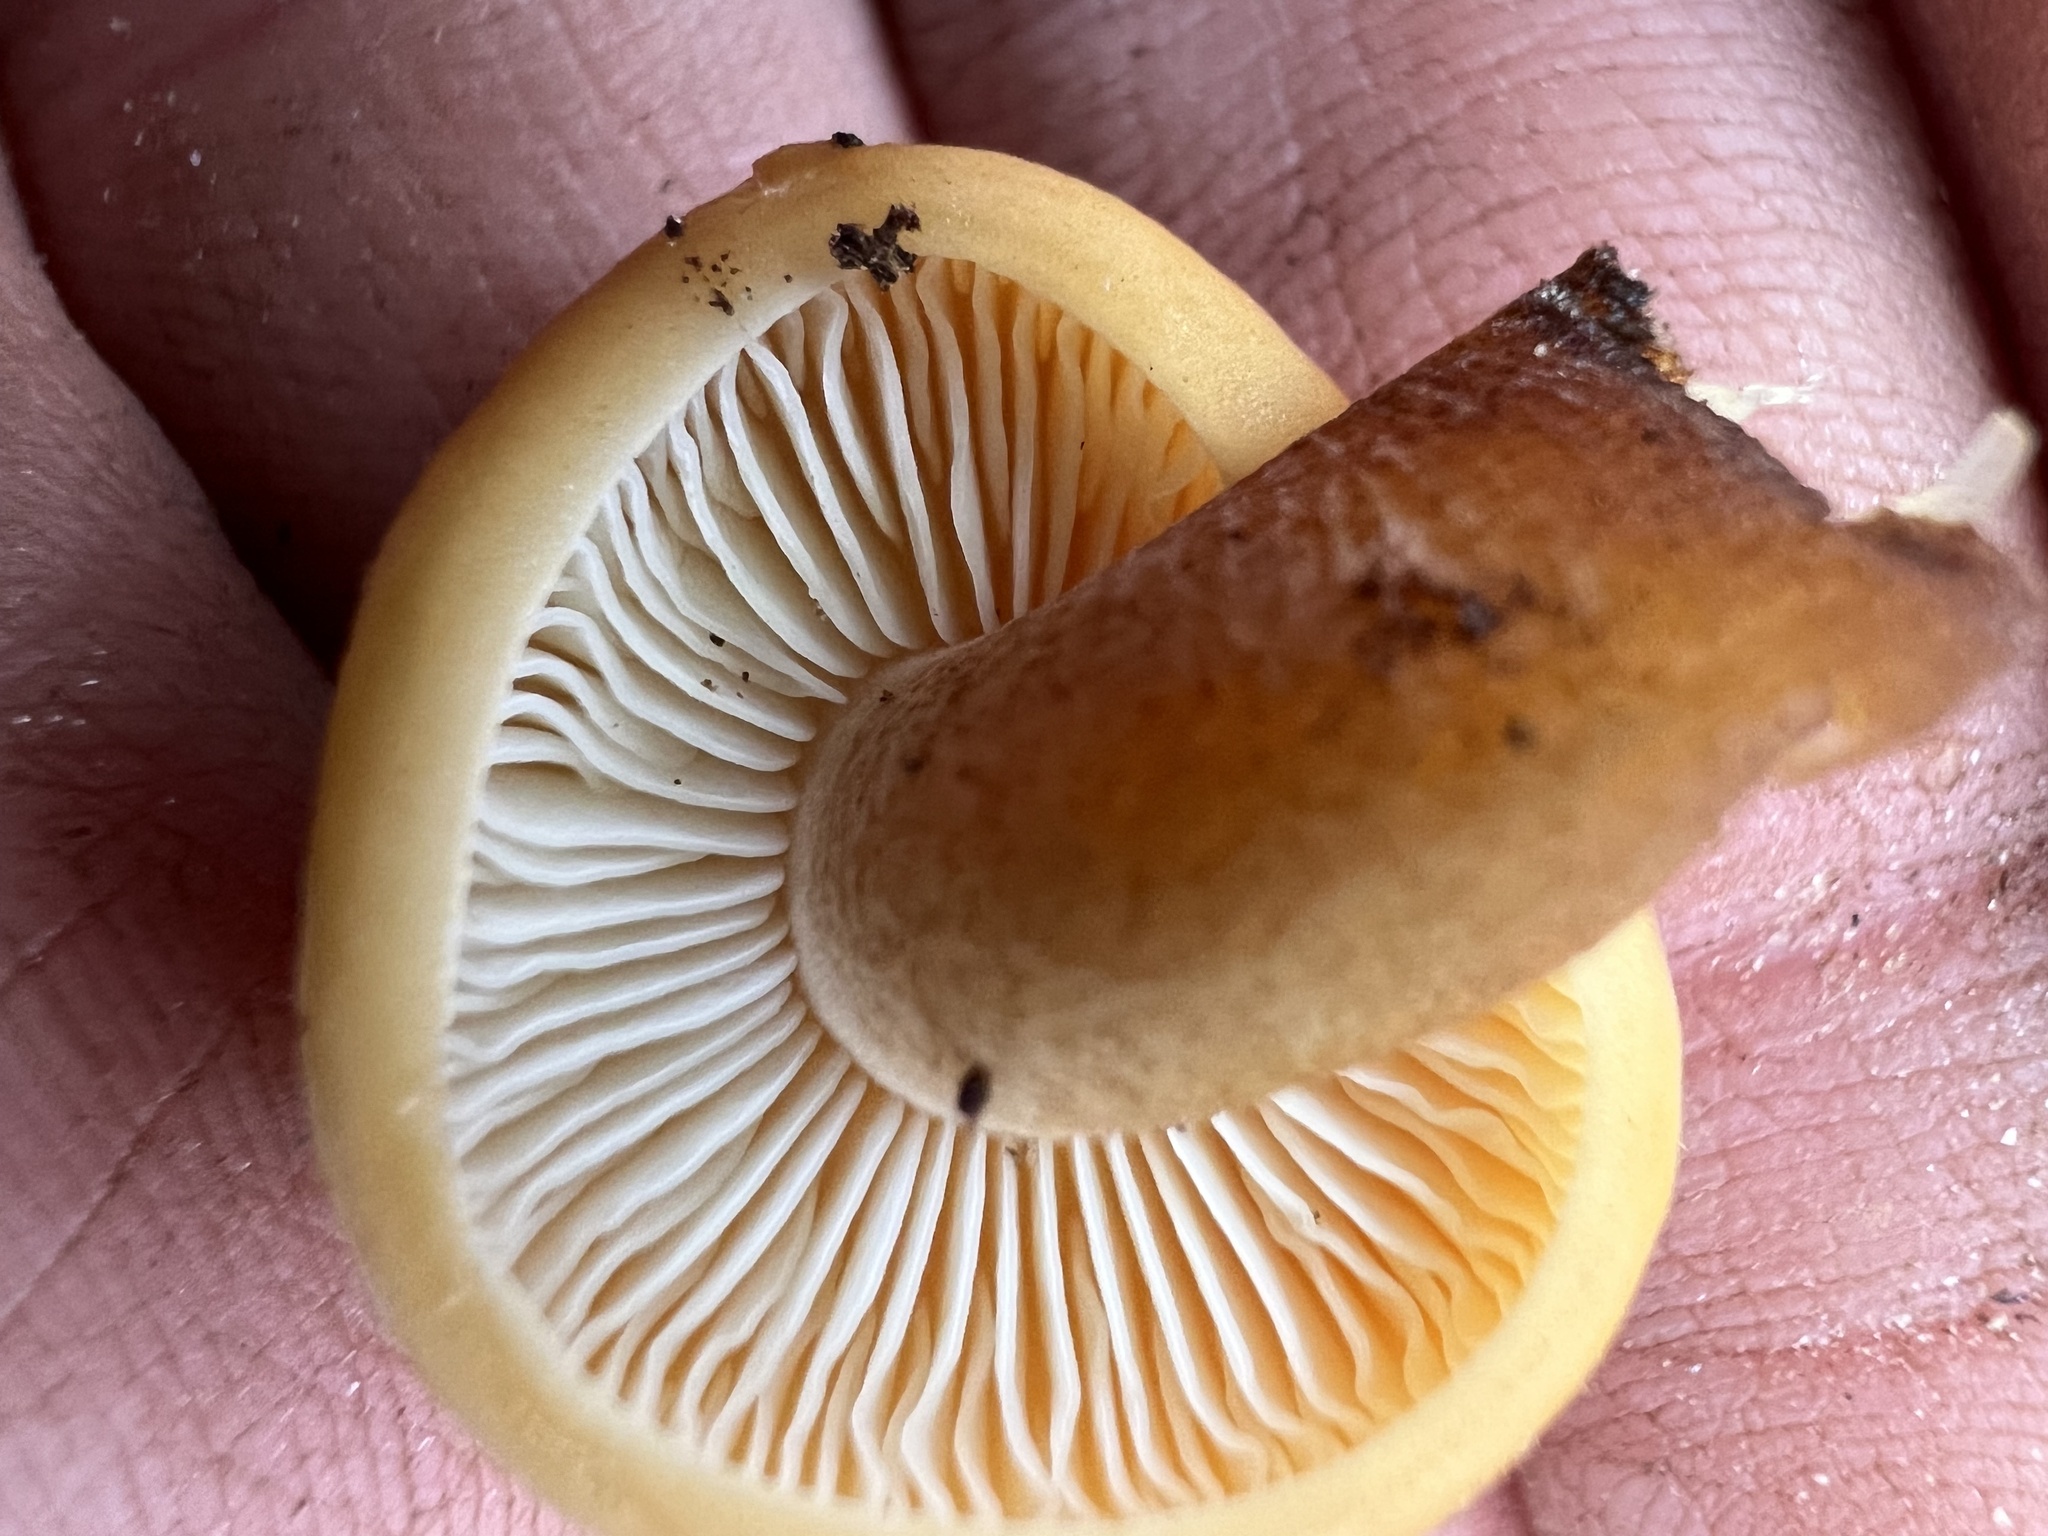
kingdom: Fungi
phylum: Basidiomycota
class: Agaricomycetes
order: Agaricales
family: Physalacriaceae
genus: Flammulina
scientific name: Flammulina velutipes
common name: Velvet shank
